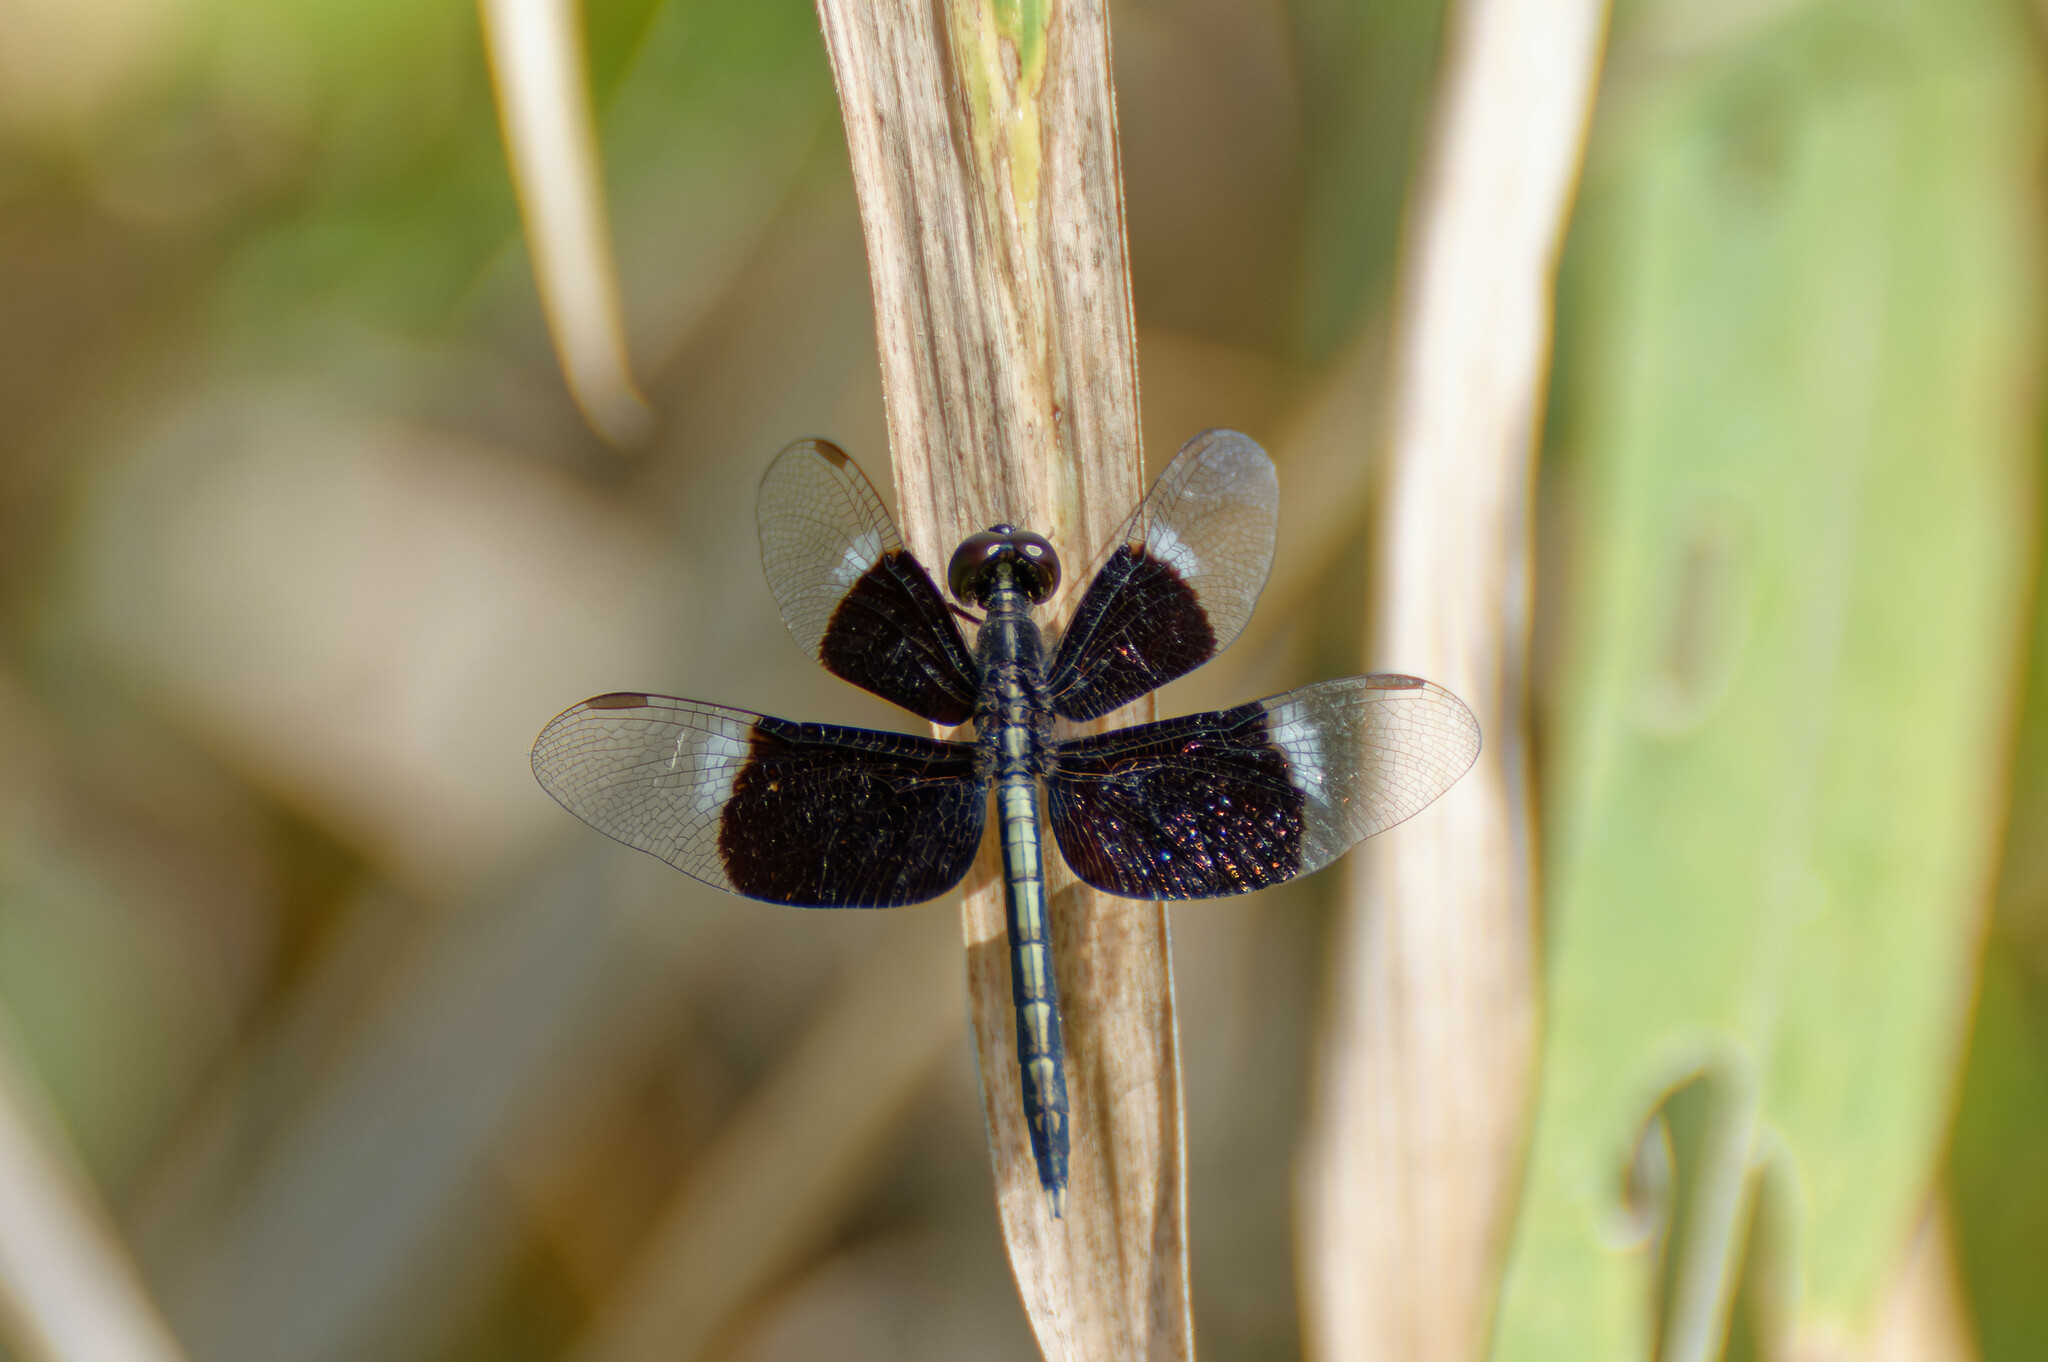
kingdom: Animalia
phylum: Arthropoda
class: Insecta
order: Odonata
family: Libellulidae
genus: Neurothemis
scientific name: Neurothemis tullia
